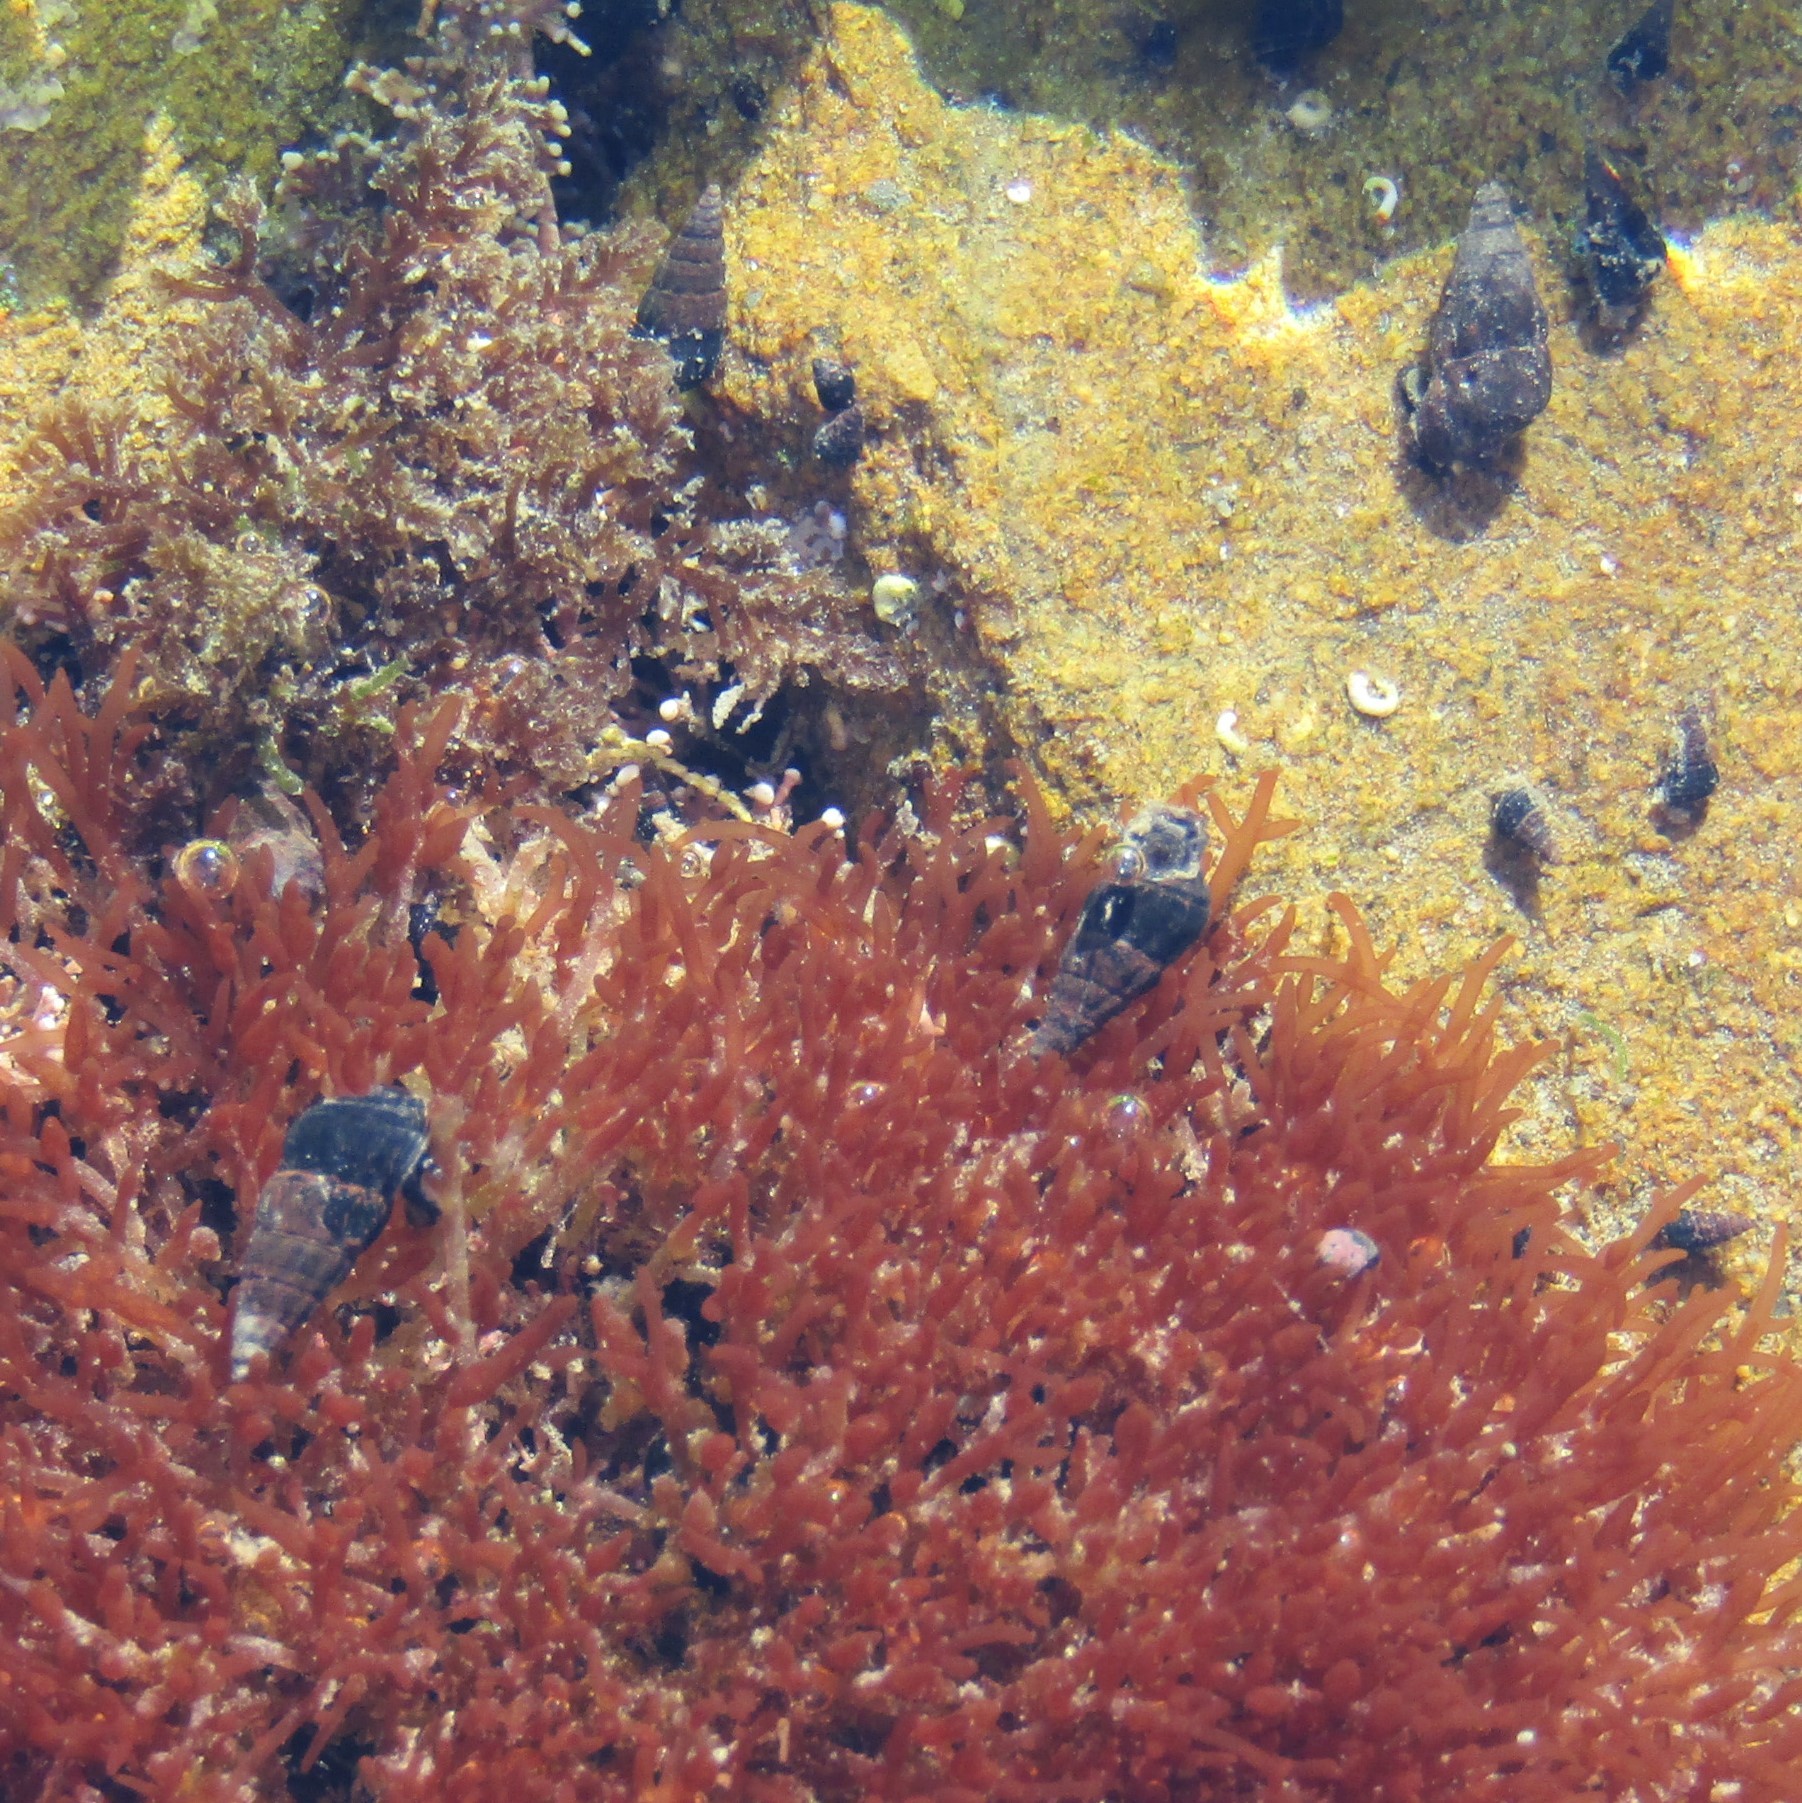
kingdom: Animalia
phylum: Mollusca
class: Gastropoda
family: Batillariidae
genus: Zeacumantus
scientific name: Zeacumantus subcarinatus
